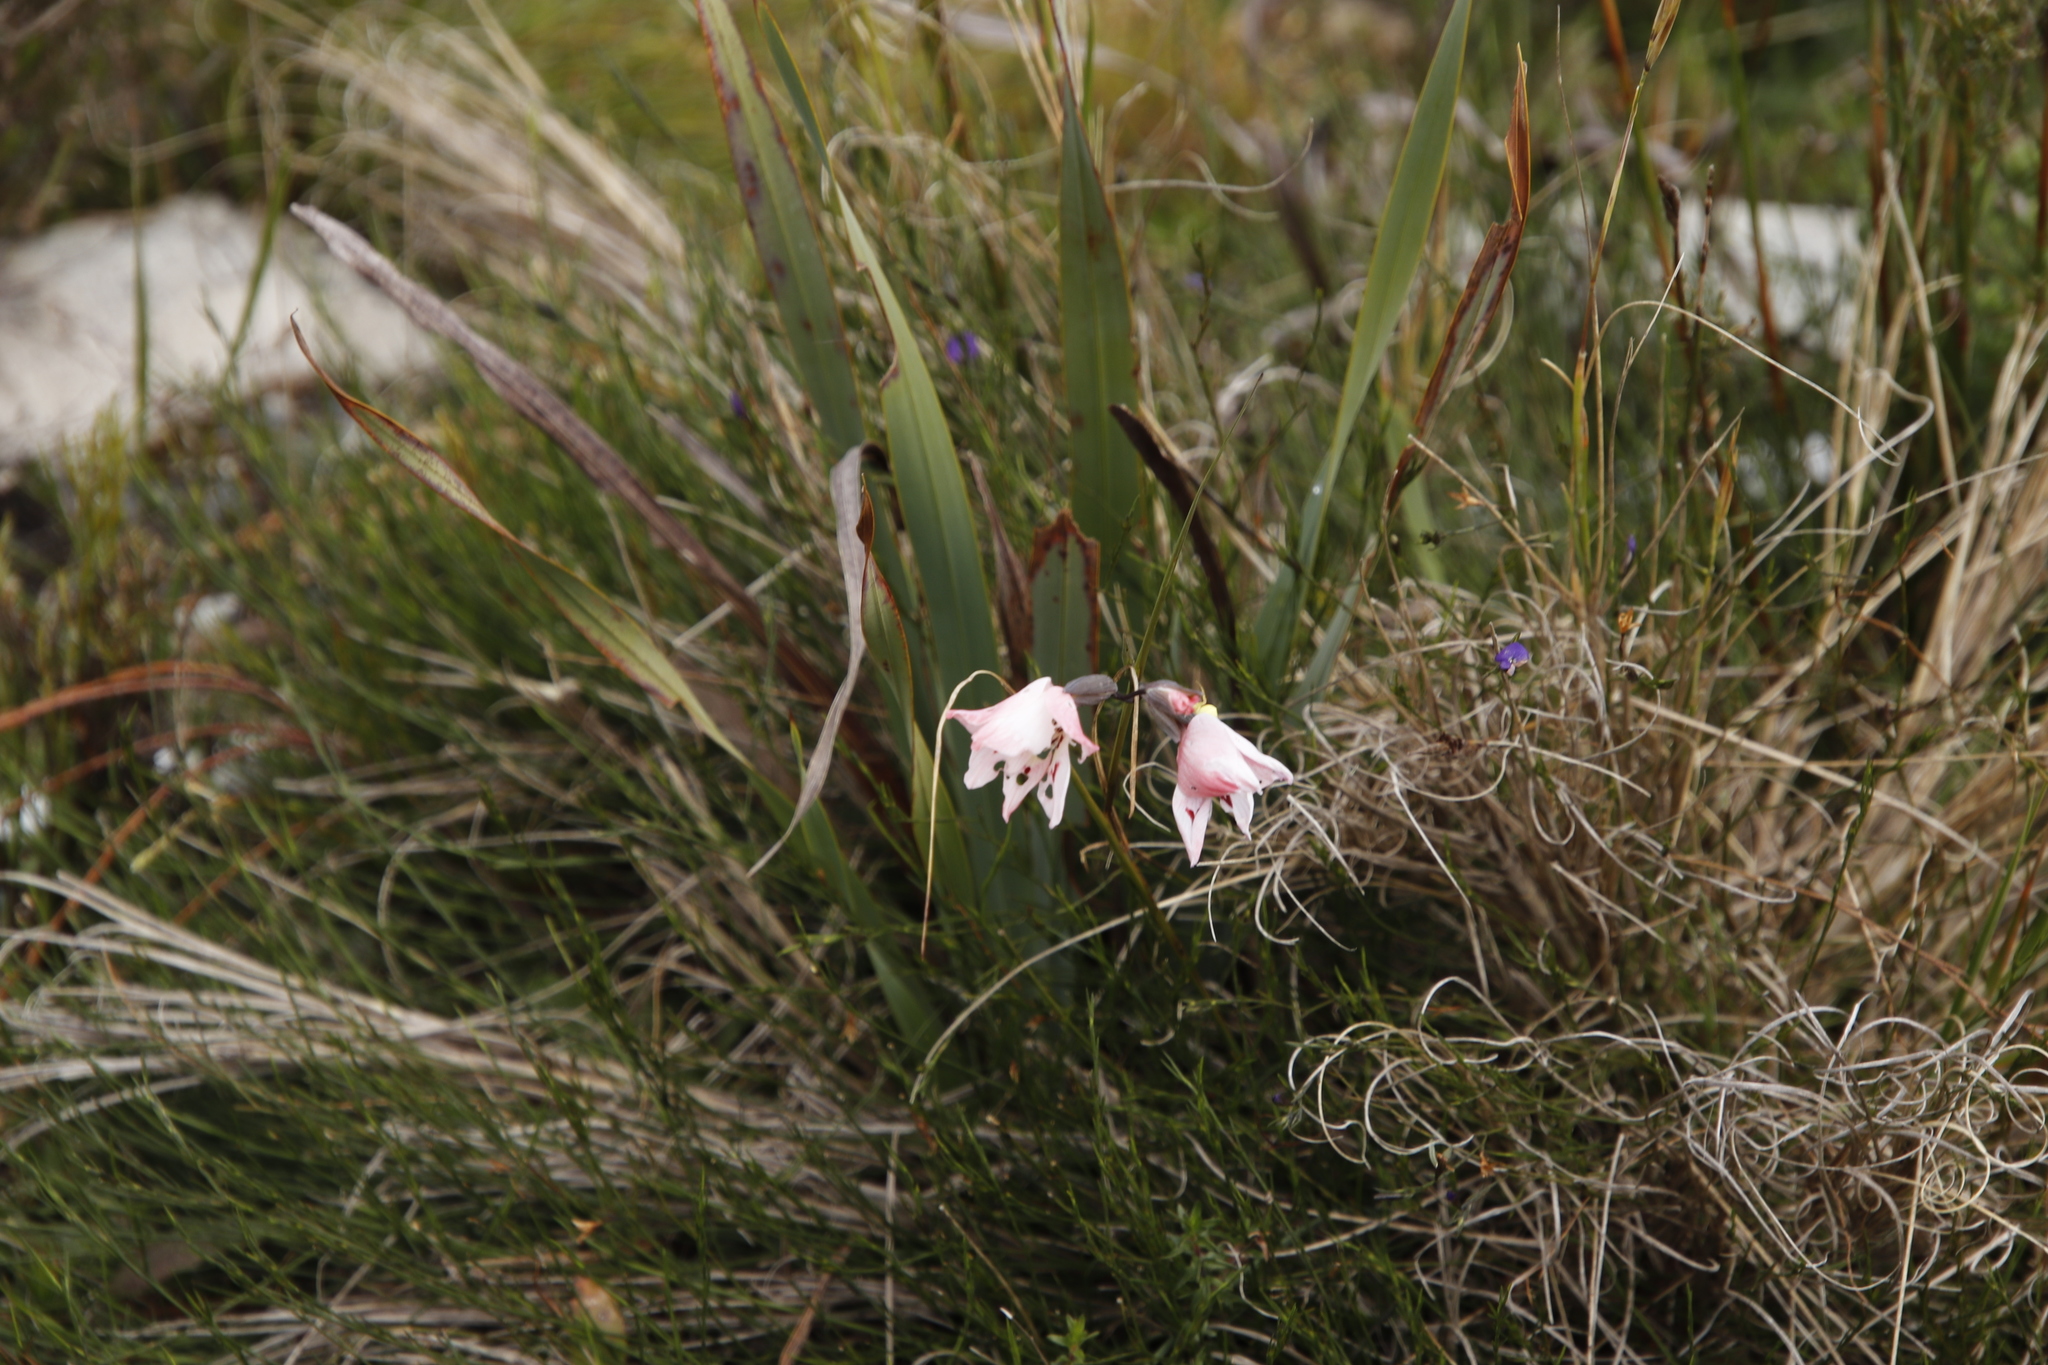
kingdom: Plantae
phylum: Tracheophyta
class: Liliopsida
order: Asparagales
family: Iridaceae
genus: Gladiolus
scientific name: Gladiolus debilis
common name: Painted-lady
